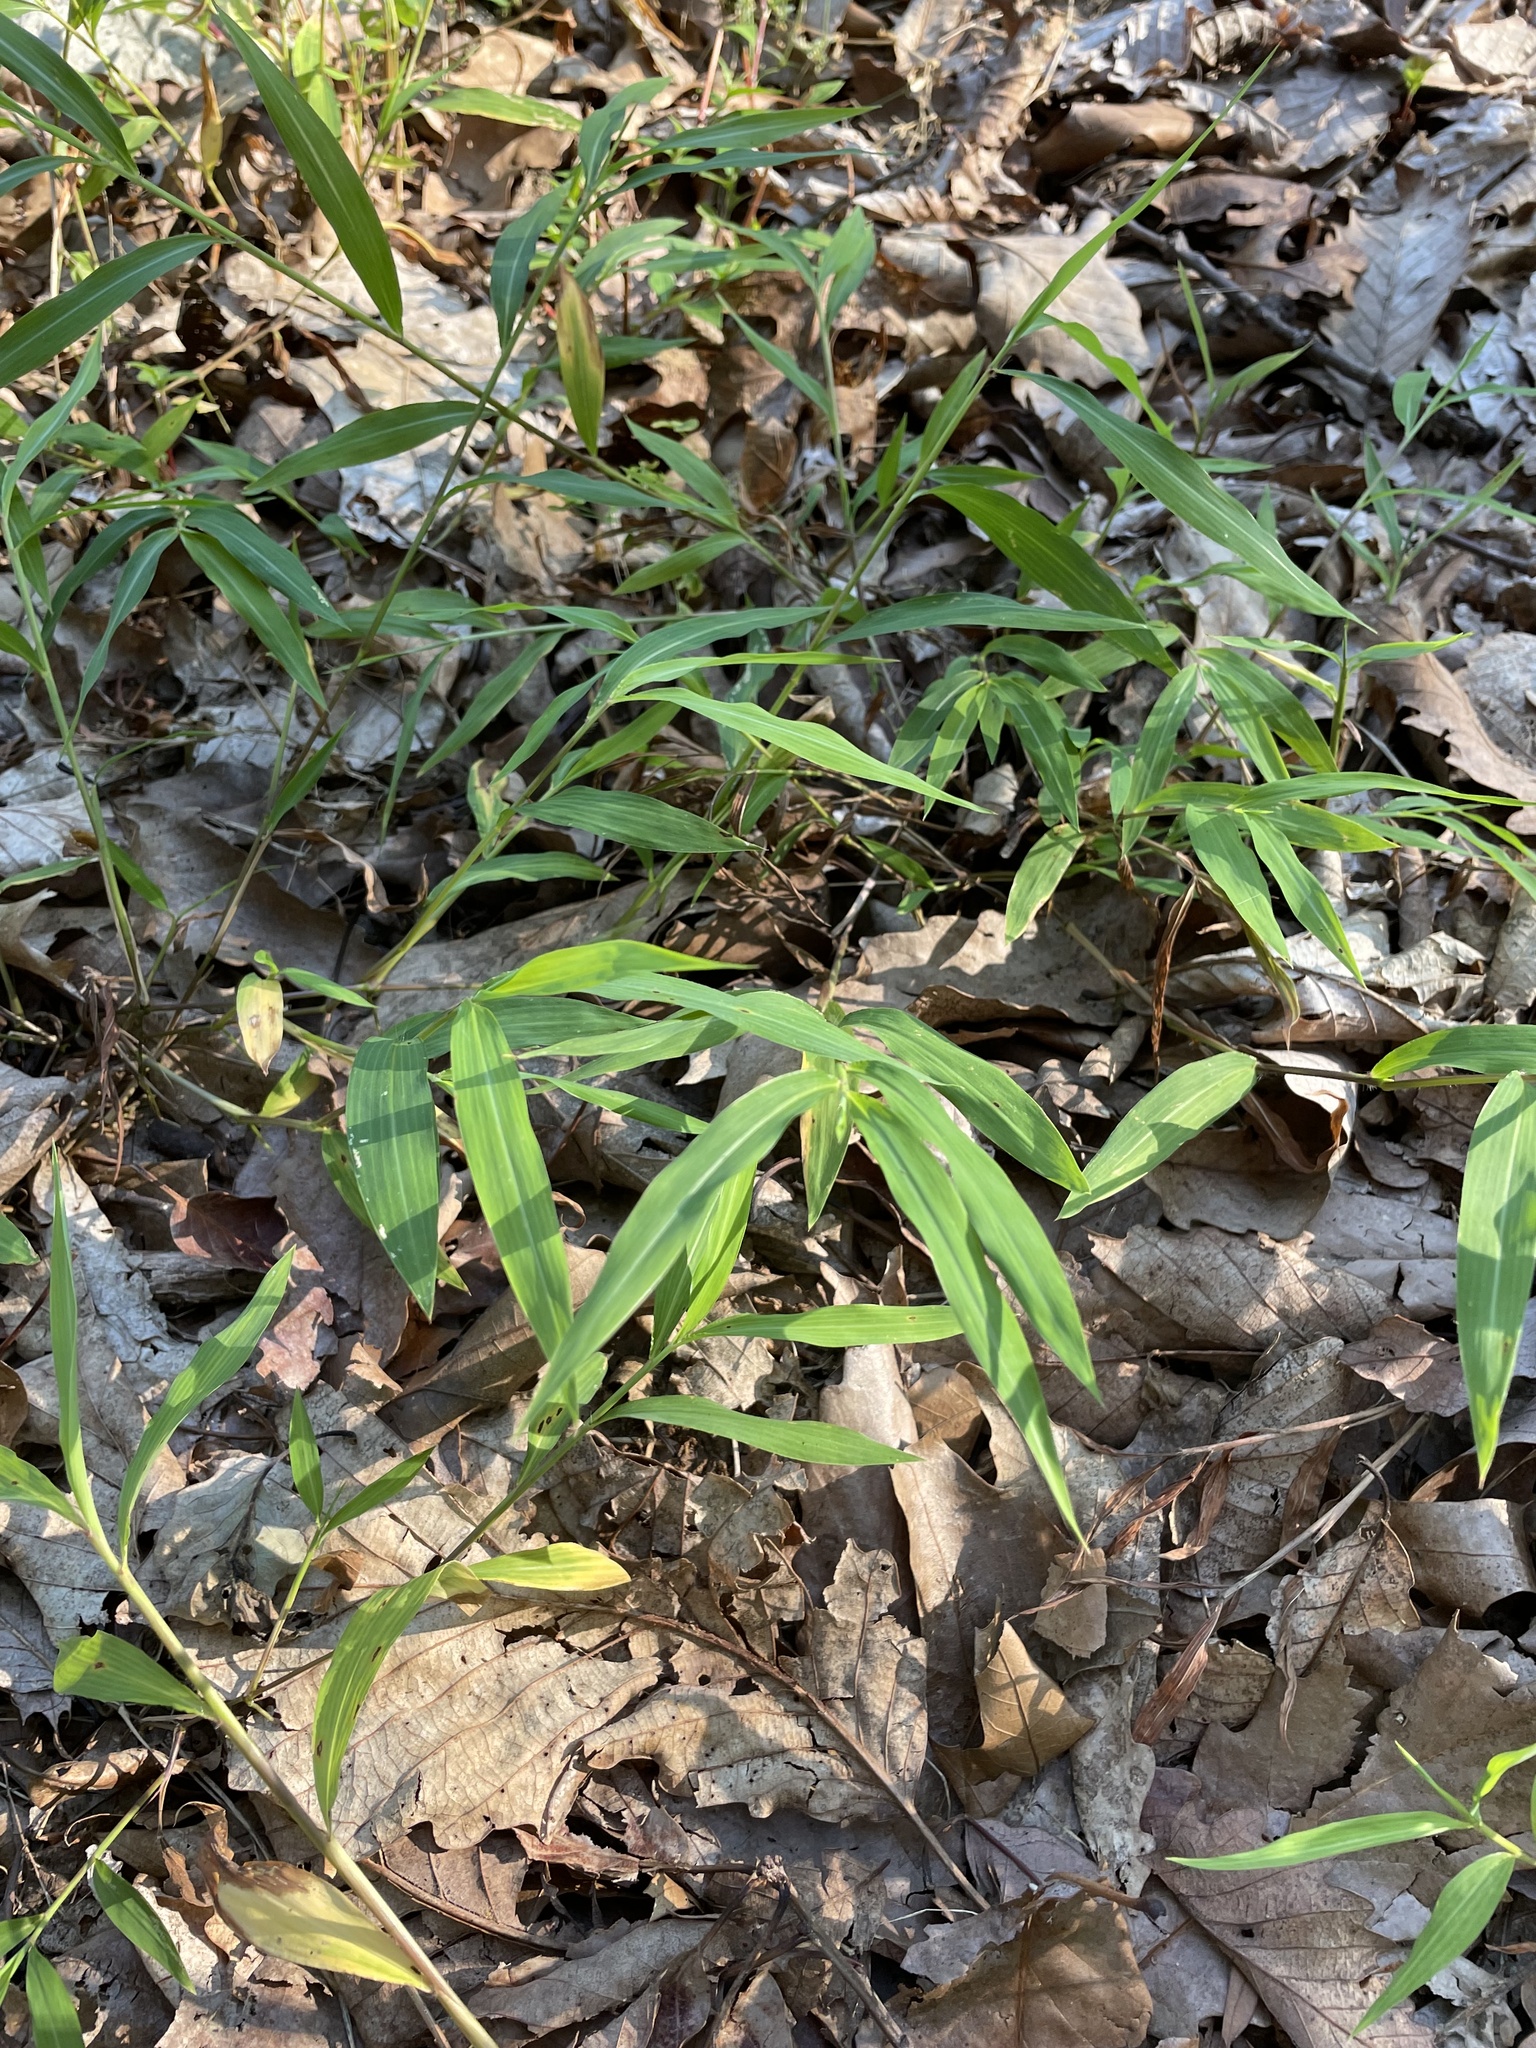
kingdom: Plantae
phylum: Tracheophyta
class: Liliopsida
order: Poales
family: Poaceae
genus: Microstegium
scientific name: Microstegium vimineum
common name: Japanese stiltgrass
